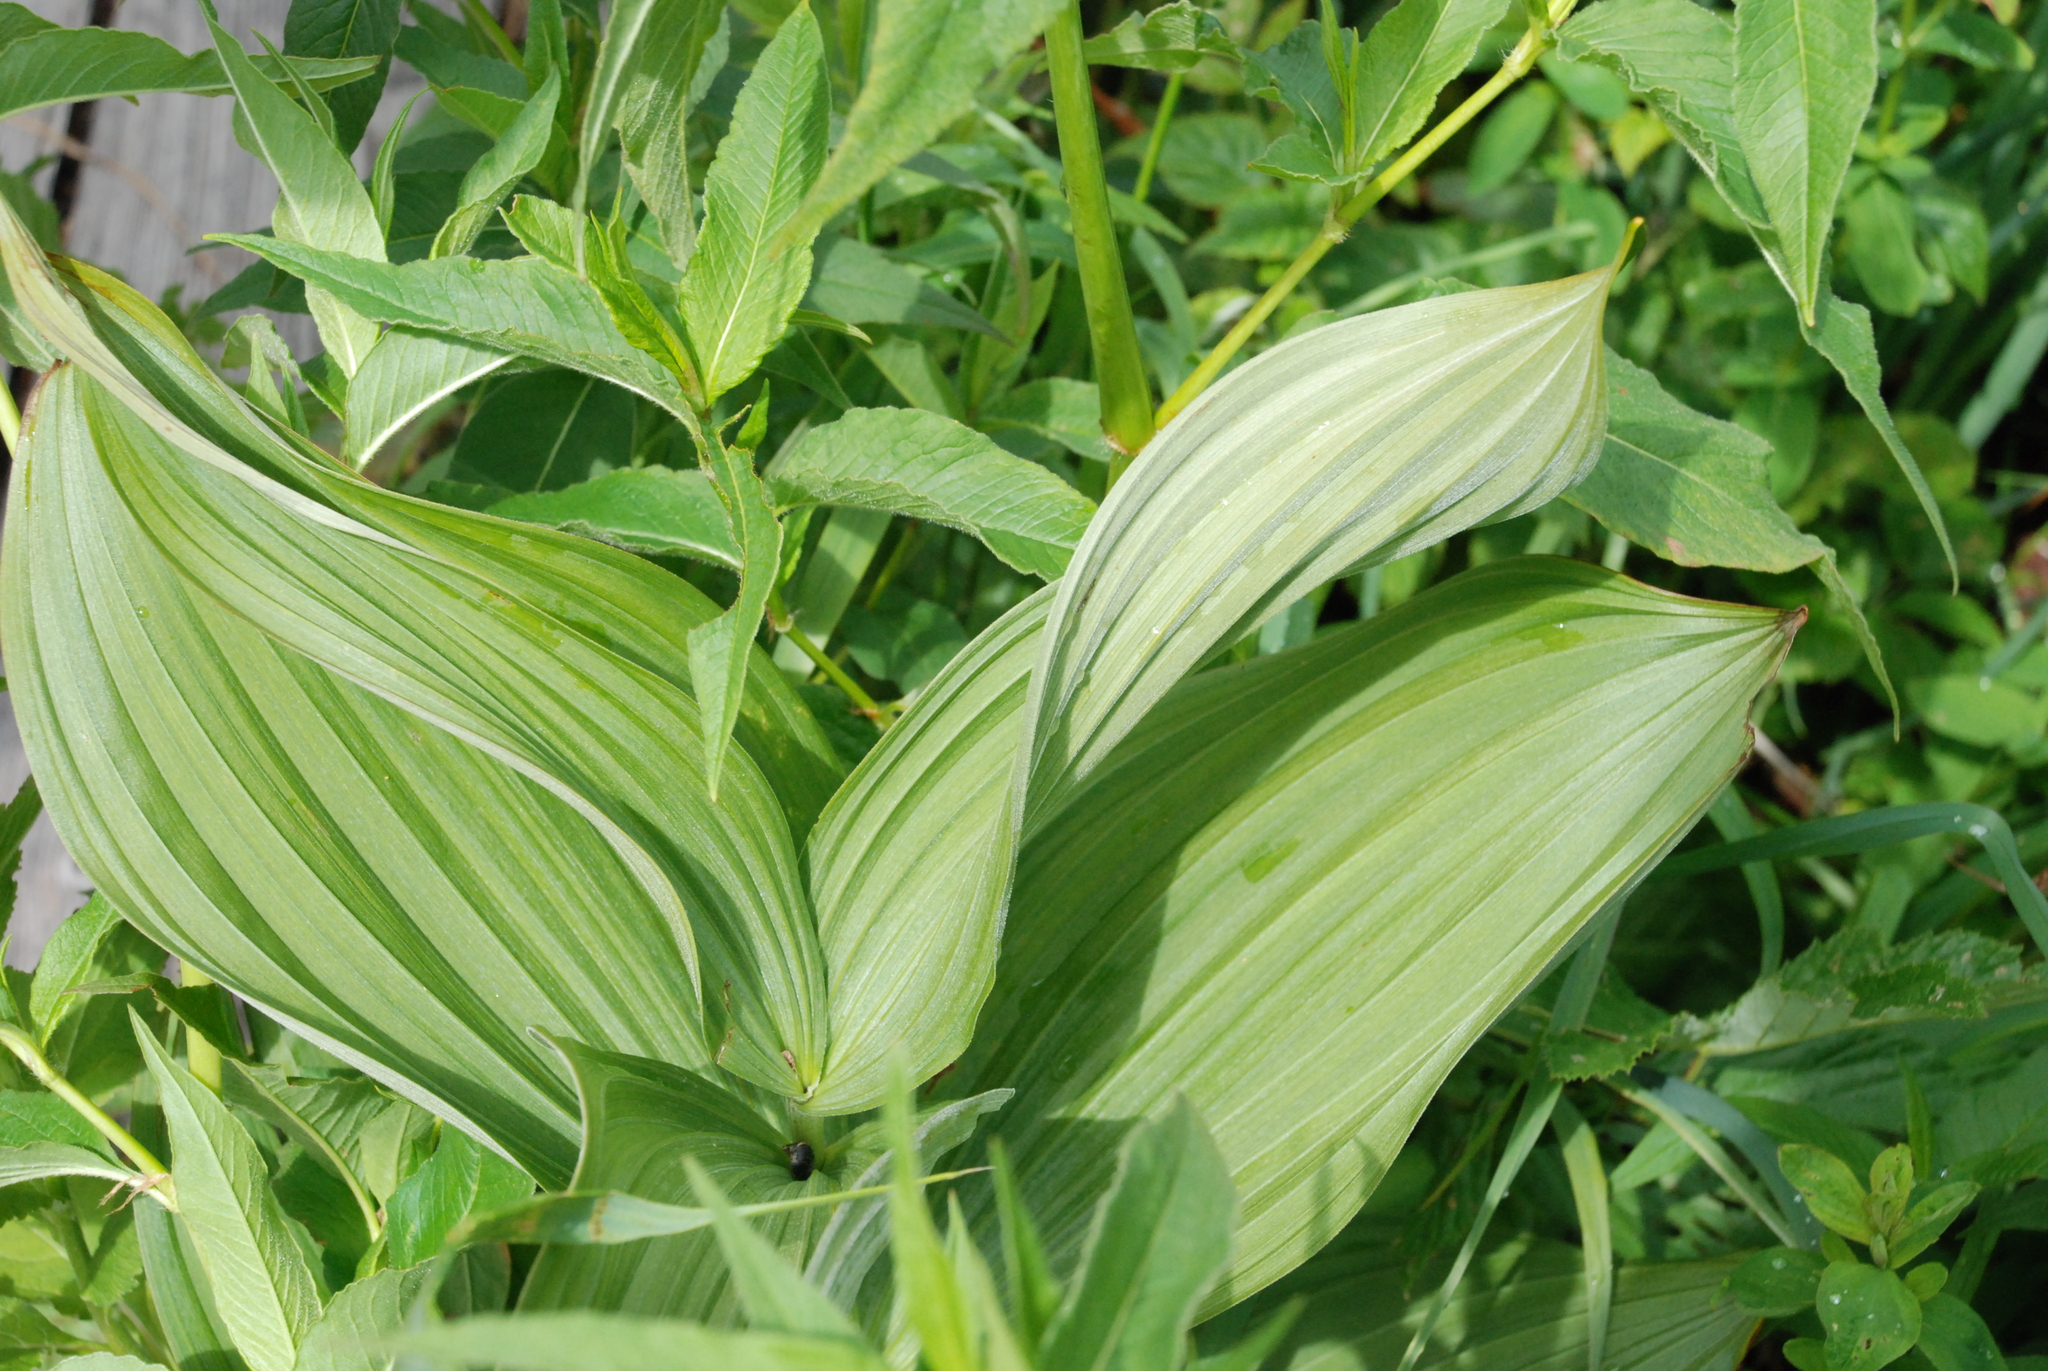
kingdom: Plantae
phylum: Tracheophyta
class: Liliopsida
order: Liliales
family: Melanthiaceae
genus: Veratrum
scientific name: Veratrum lobelianum
